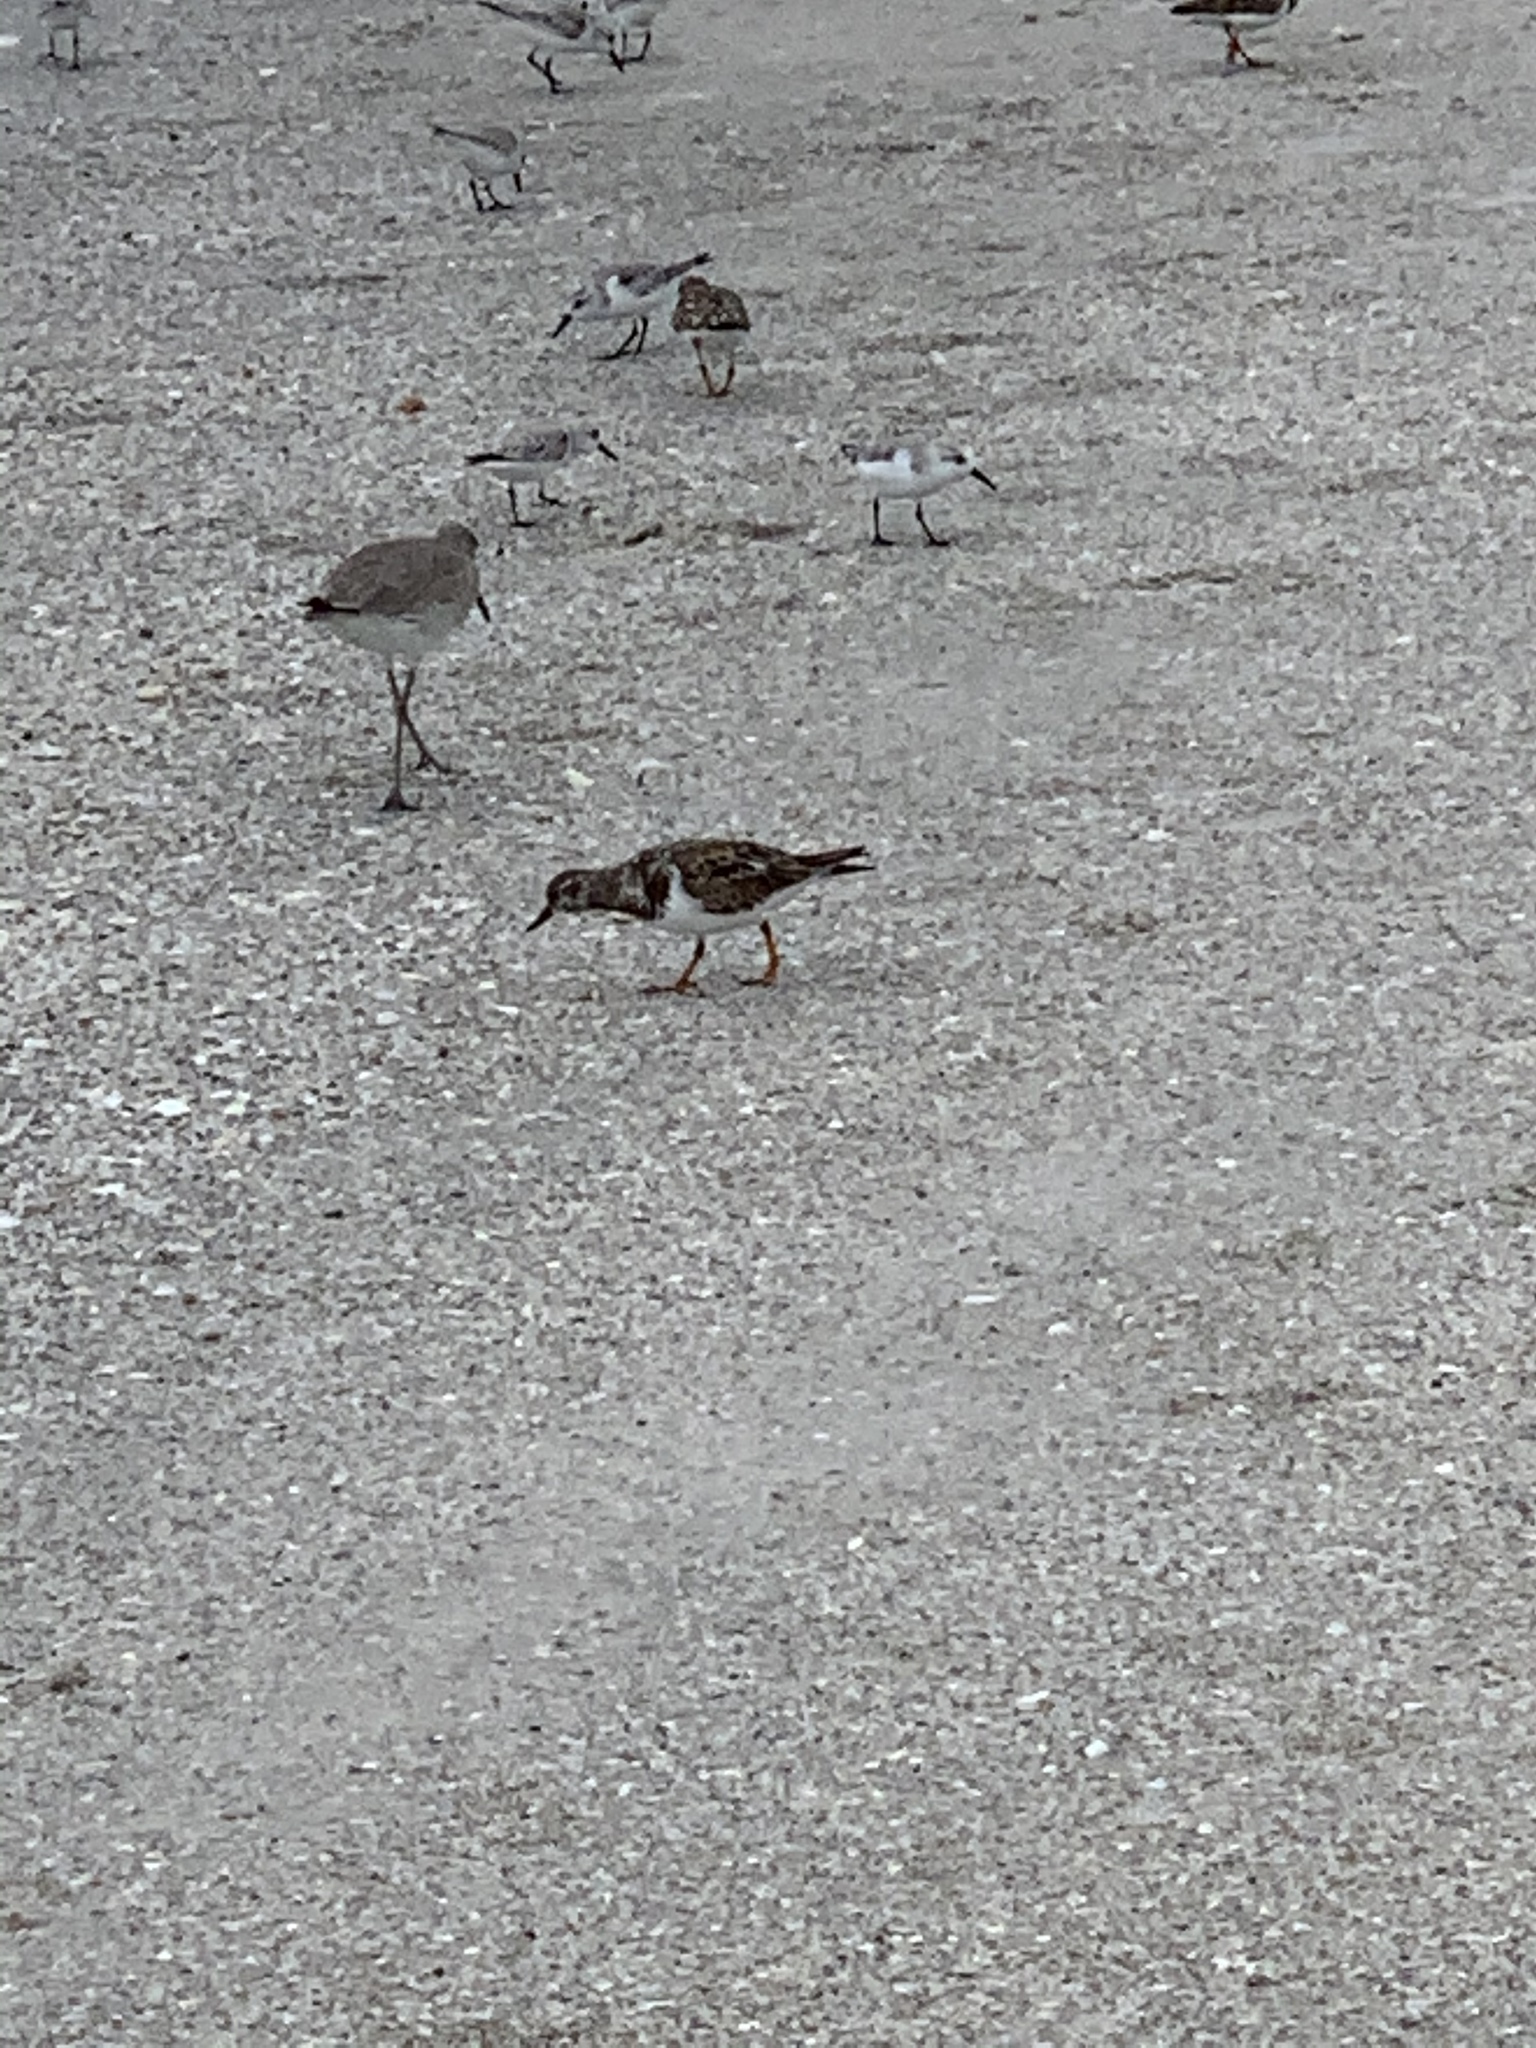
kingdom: Animalia
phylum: Chordata
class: Aves
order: Charadriiformes
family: Scolopacidae
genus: Arenaria
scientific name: Arenaria interpres
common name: Ruddy turnstone
